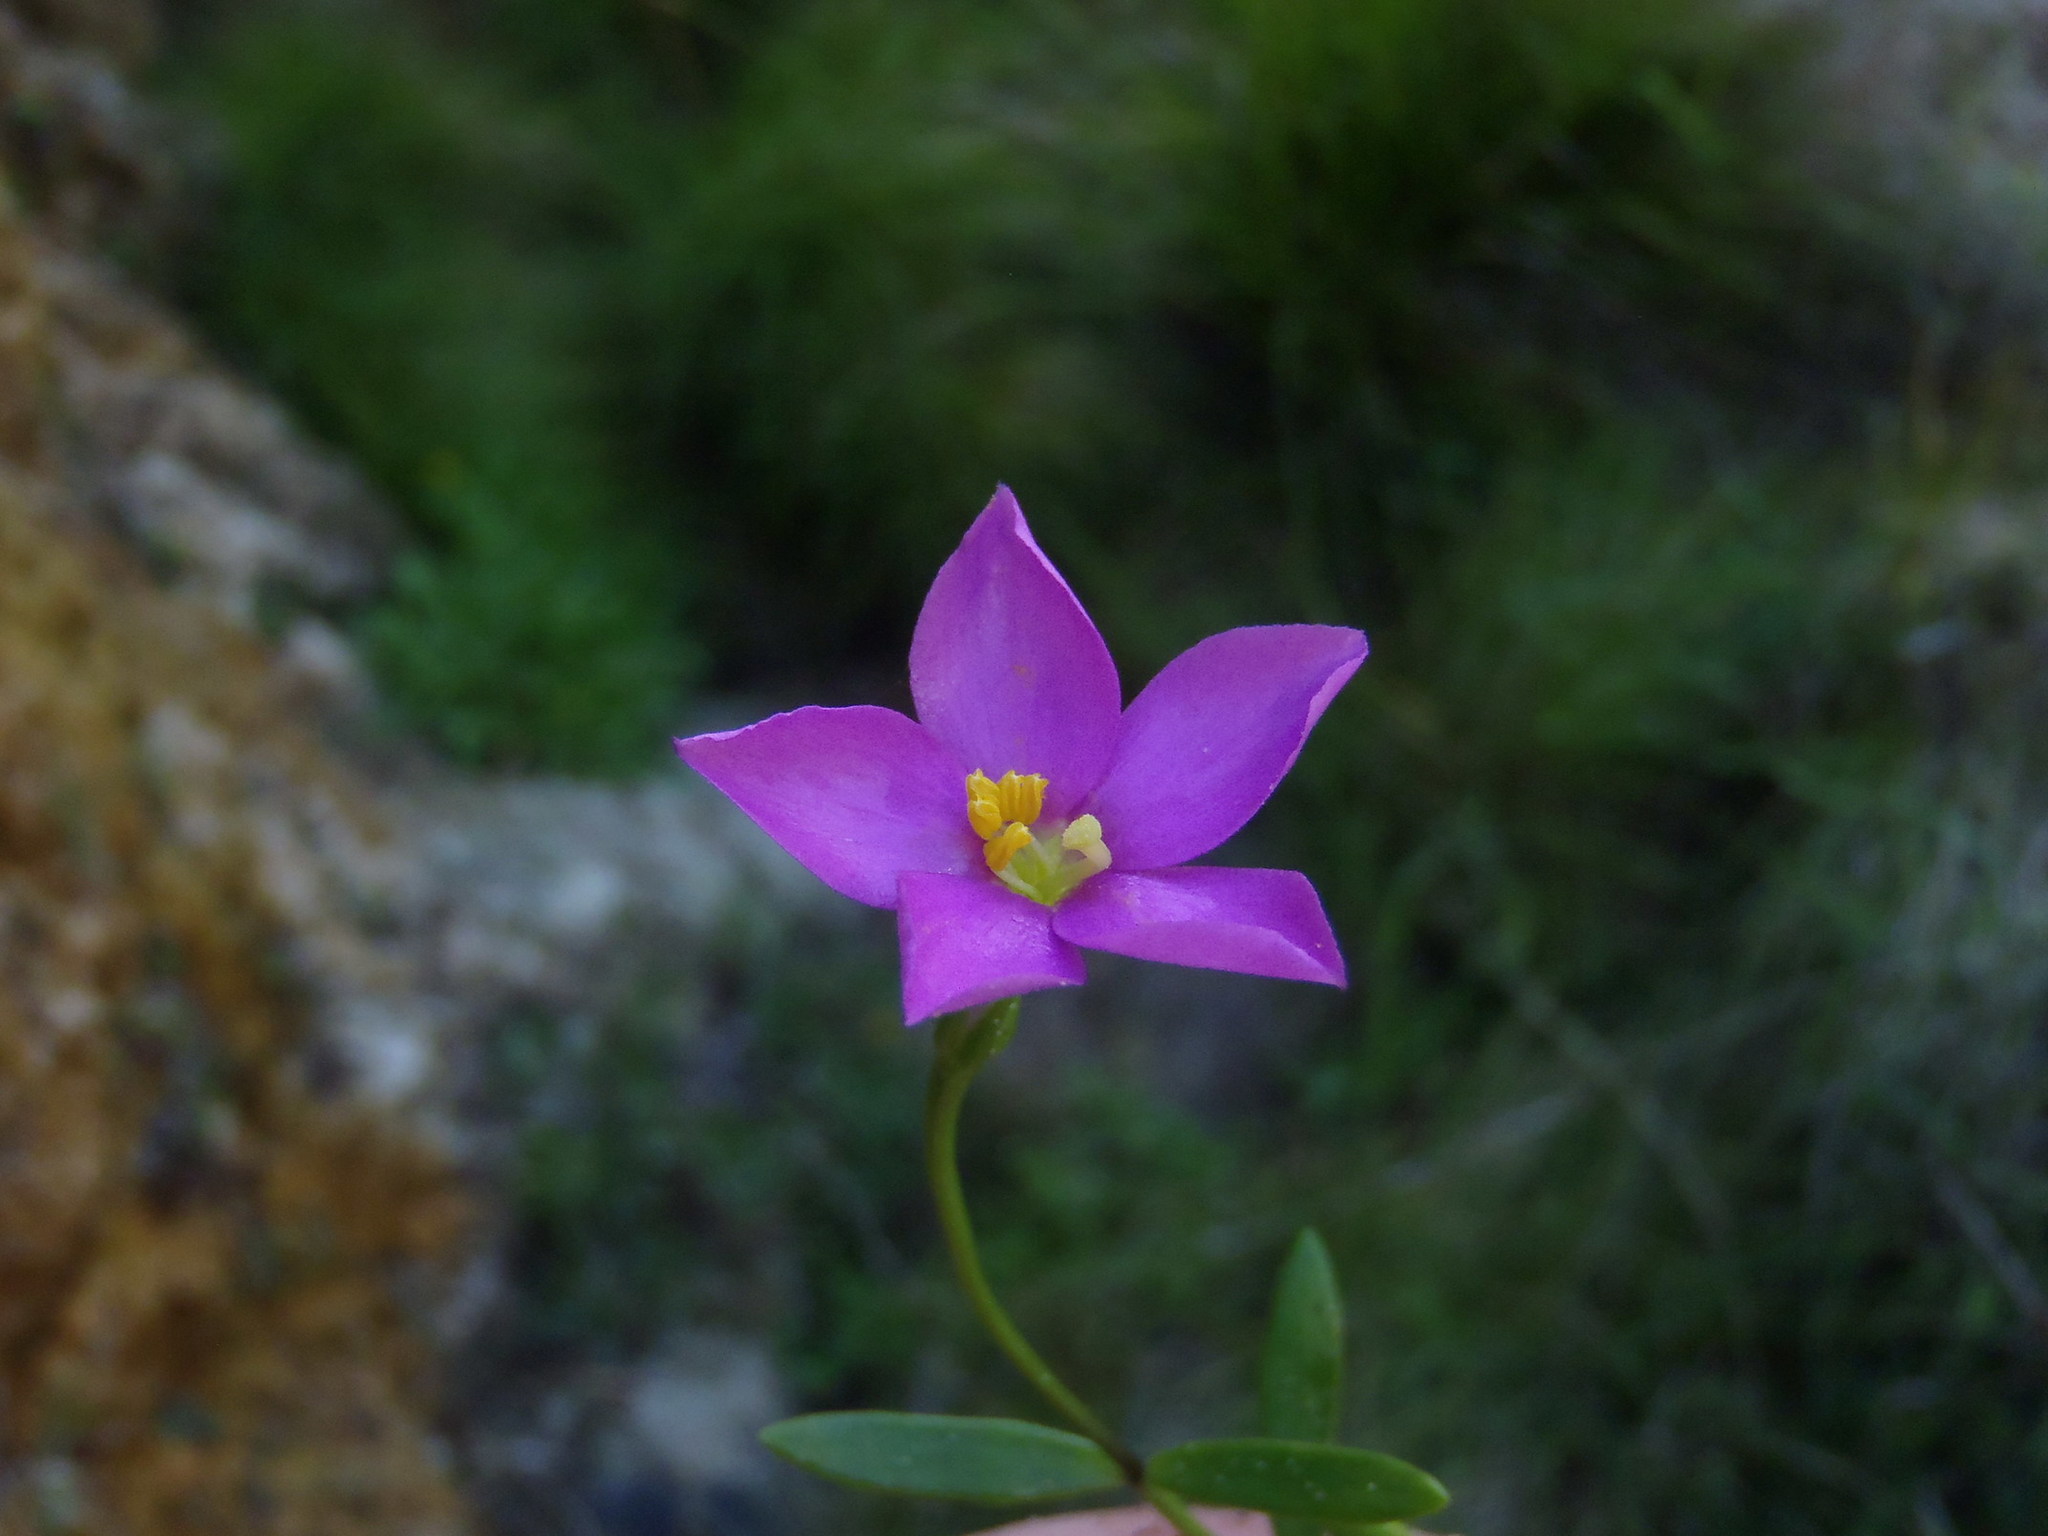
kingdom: Plantae
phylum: Tracheophyta
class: Magnoliopsida
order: Gentianales
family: Gentianaceae
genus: Chironia
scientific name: Chironia tetragona
